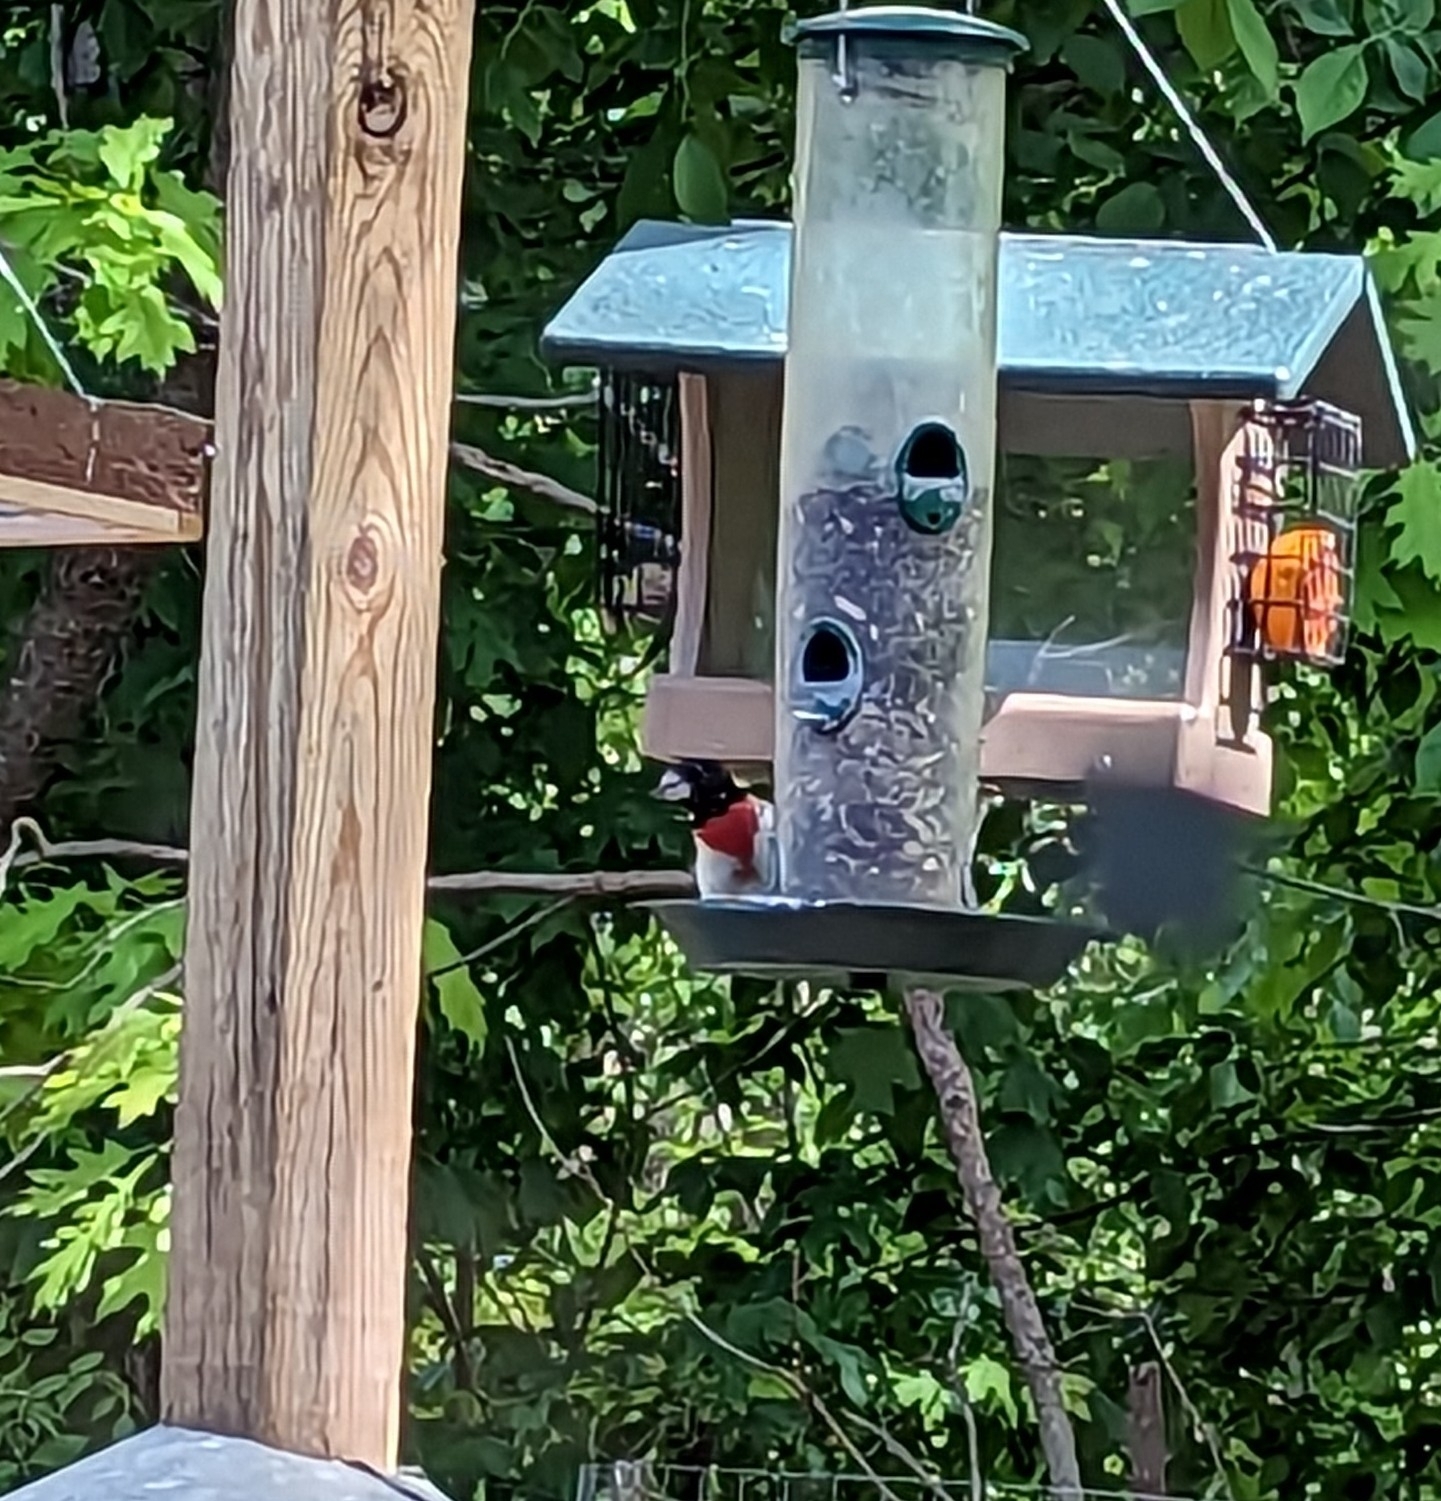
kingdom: Animalia
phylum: Chordata
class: Aves
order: Passeriformes
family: Cardinalidae
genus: Pheucticus
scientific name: Pheucticus ludovicianus
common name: Rose-breasted grosbeak
